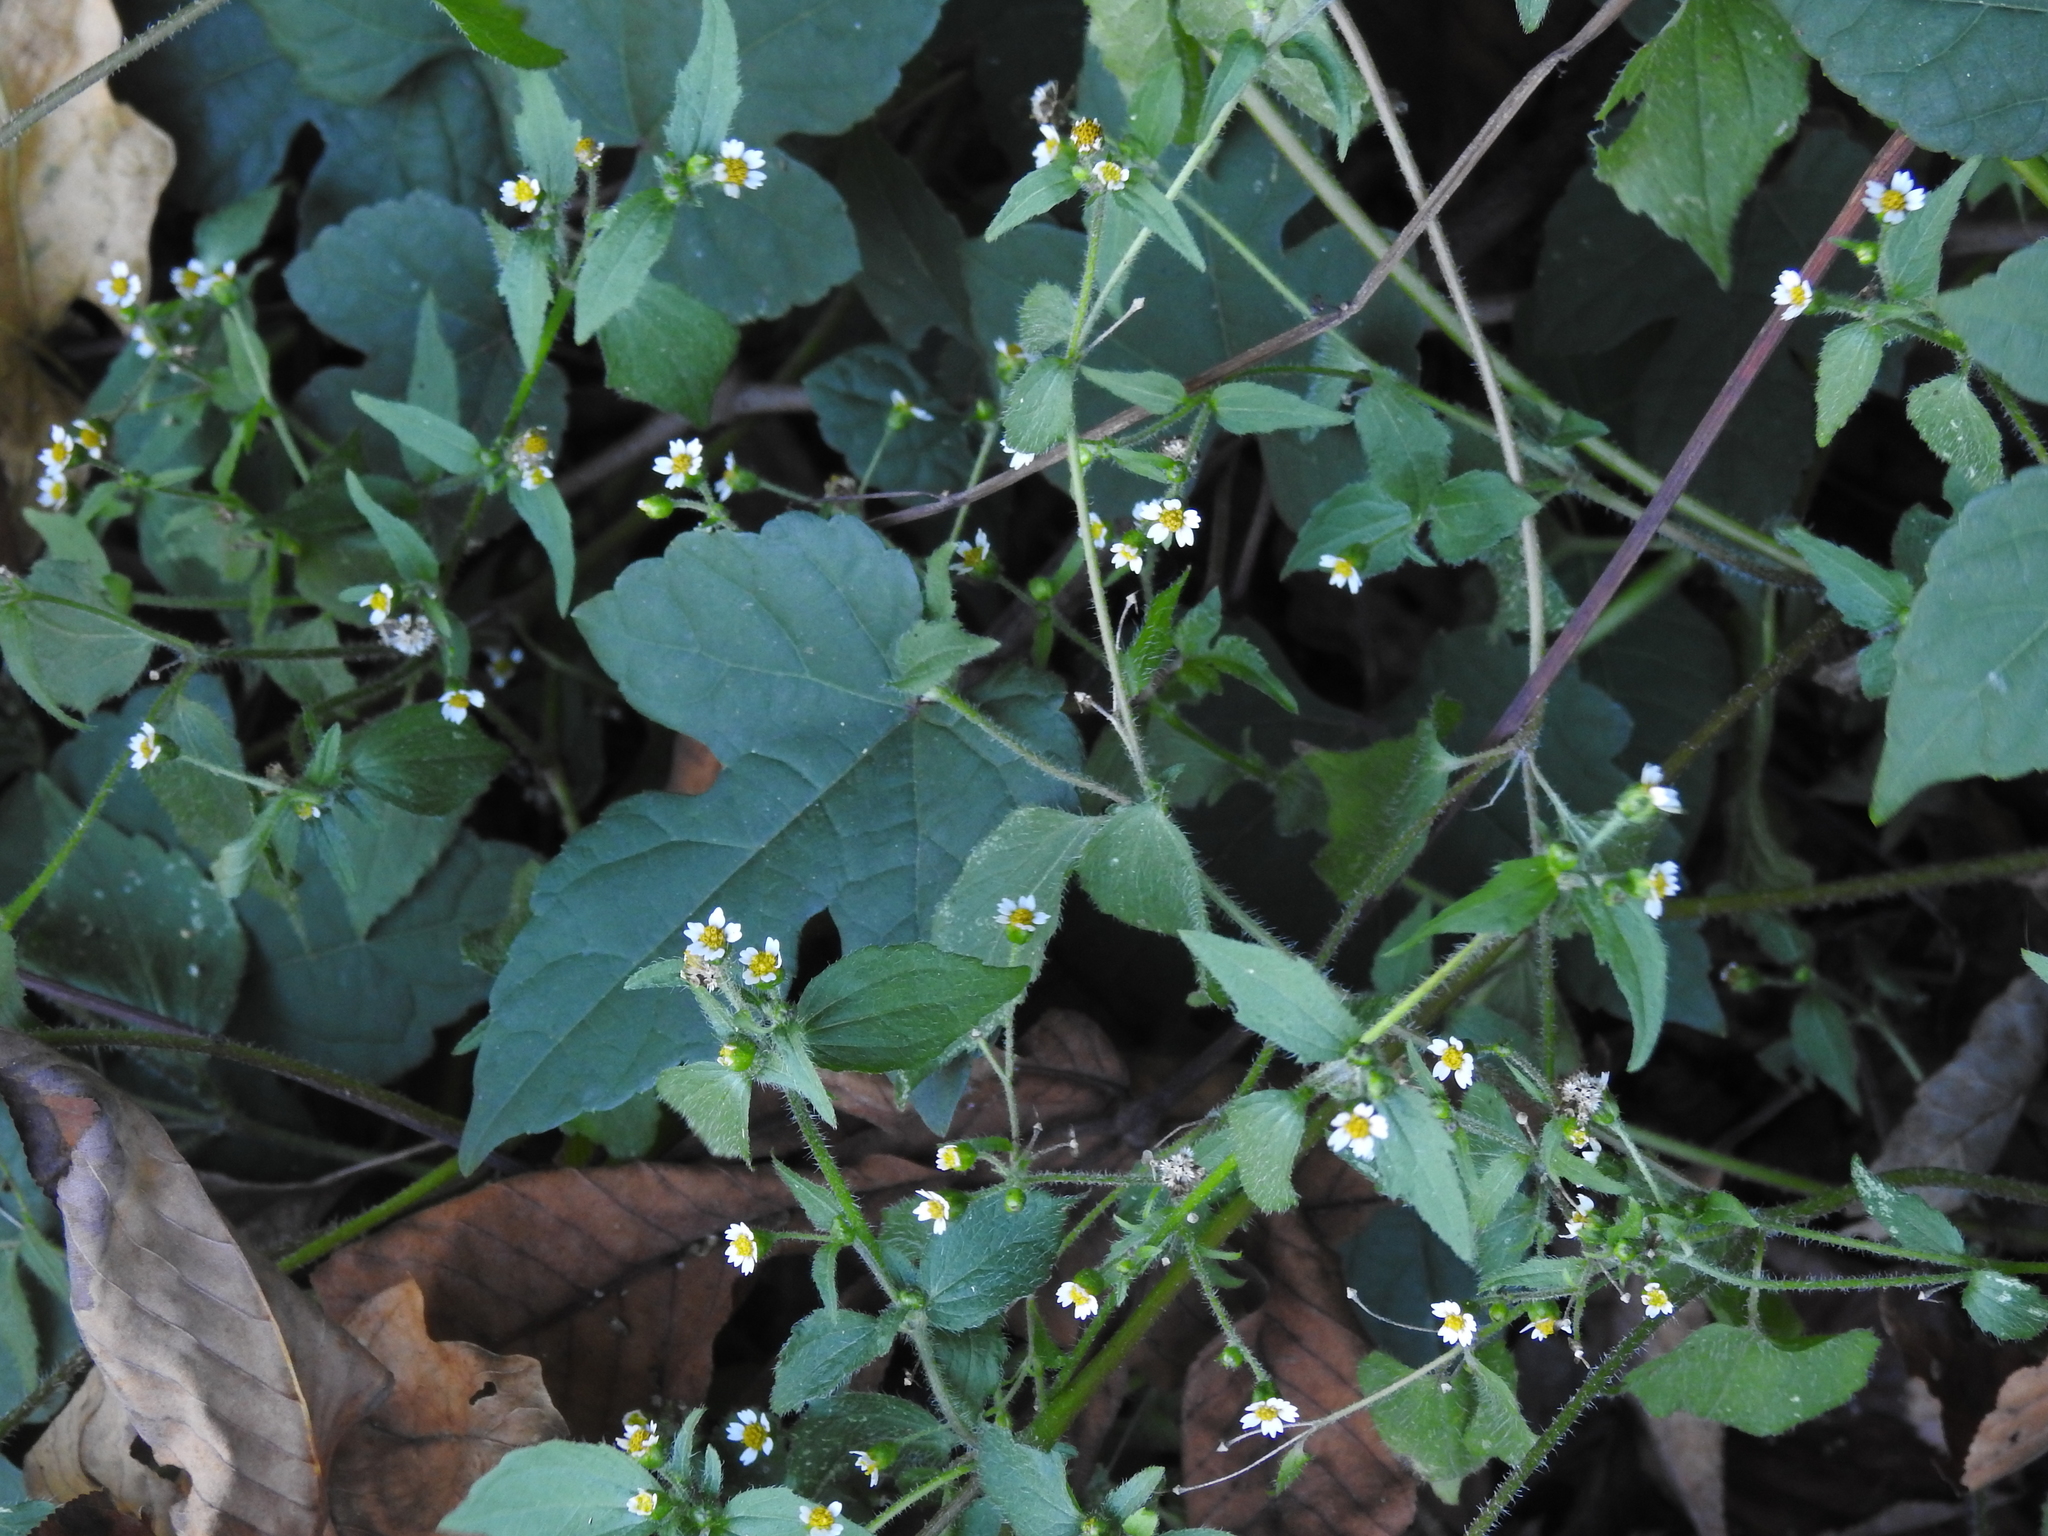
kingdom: Plantae
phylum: Tracheophyta
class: Magnoliopsida
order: Asterales
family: Asteraceae
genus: Galinsoga
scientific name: Galinsoga quadriradiata
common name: Shaggy soldier
